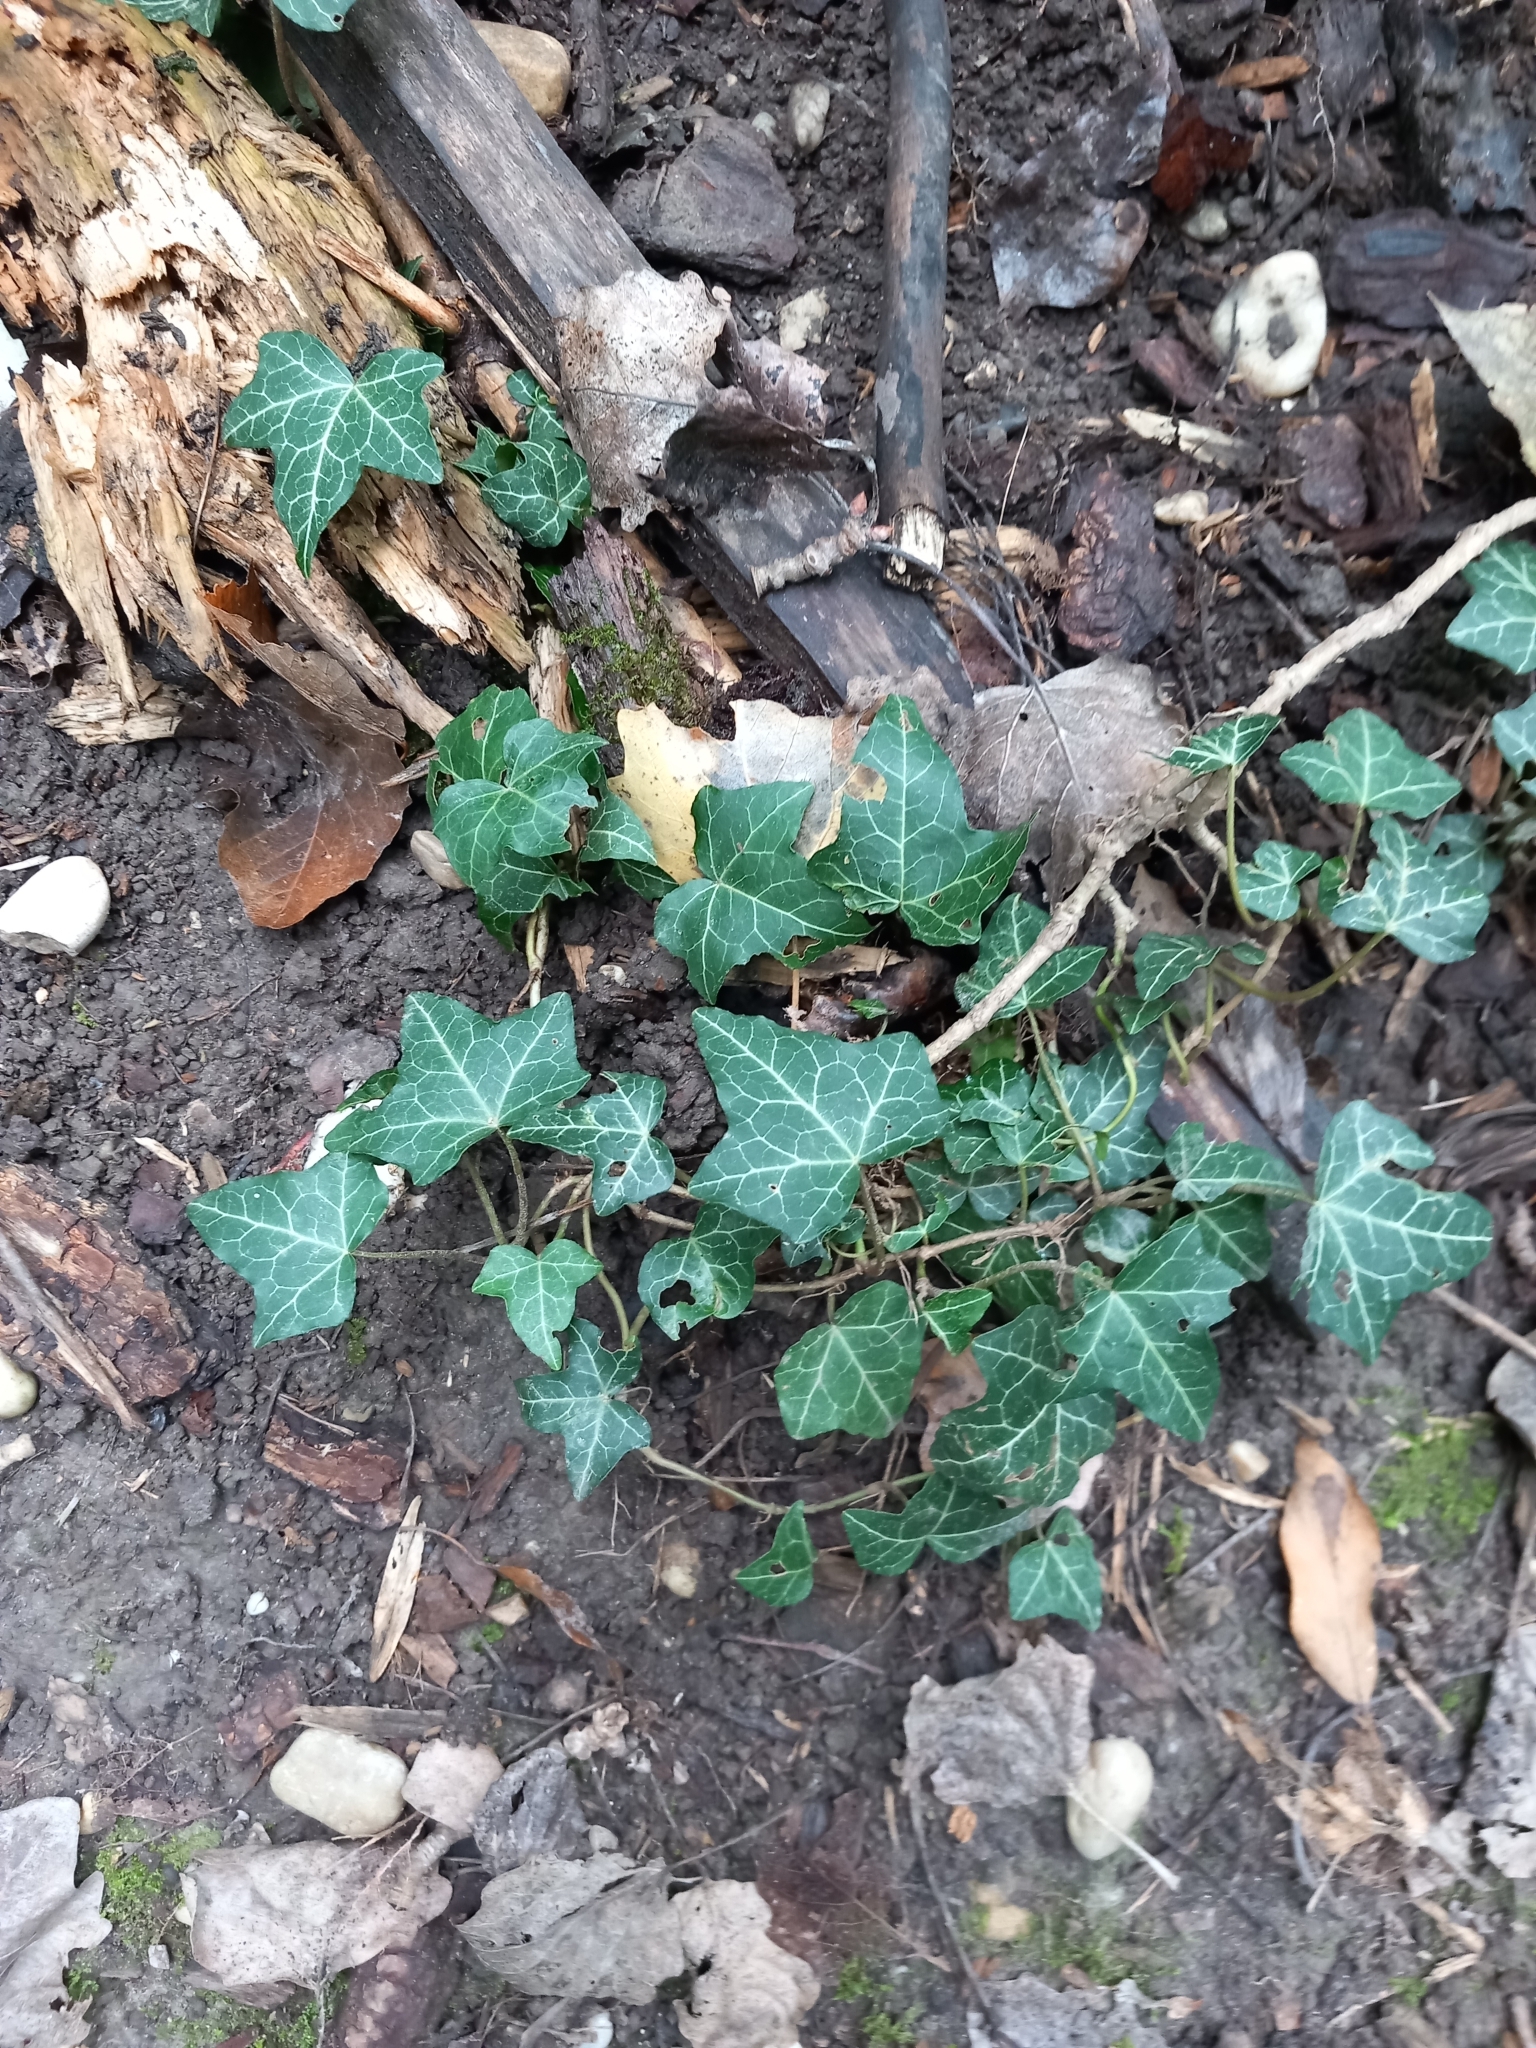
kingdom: Plantae
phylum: Tracheophyta
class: Magnoliopsida
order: Apiales
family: Araliaceae
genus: Hedera
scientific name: Hedera helix
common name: Ivy
